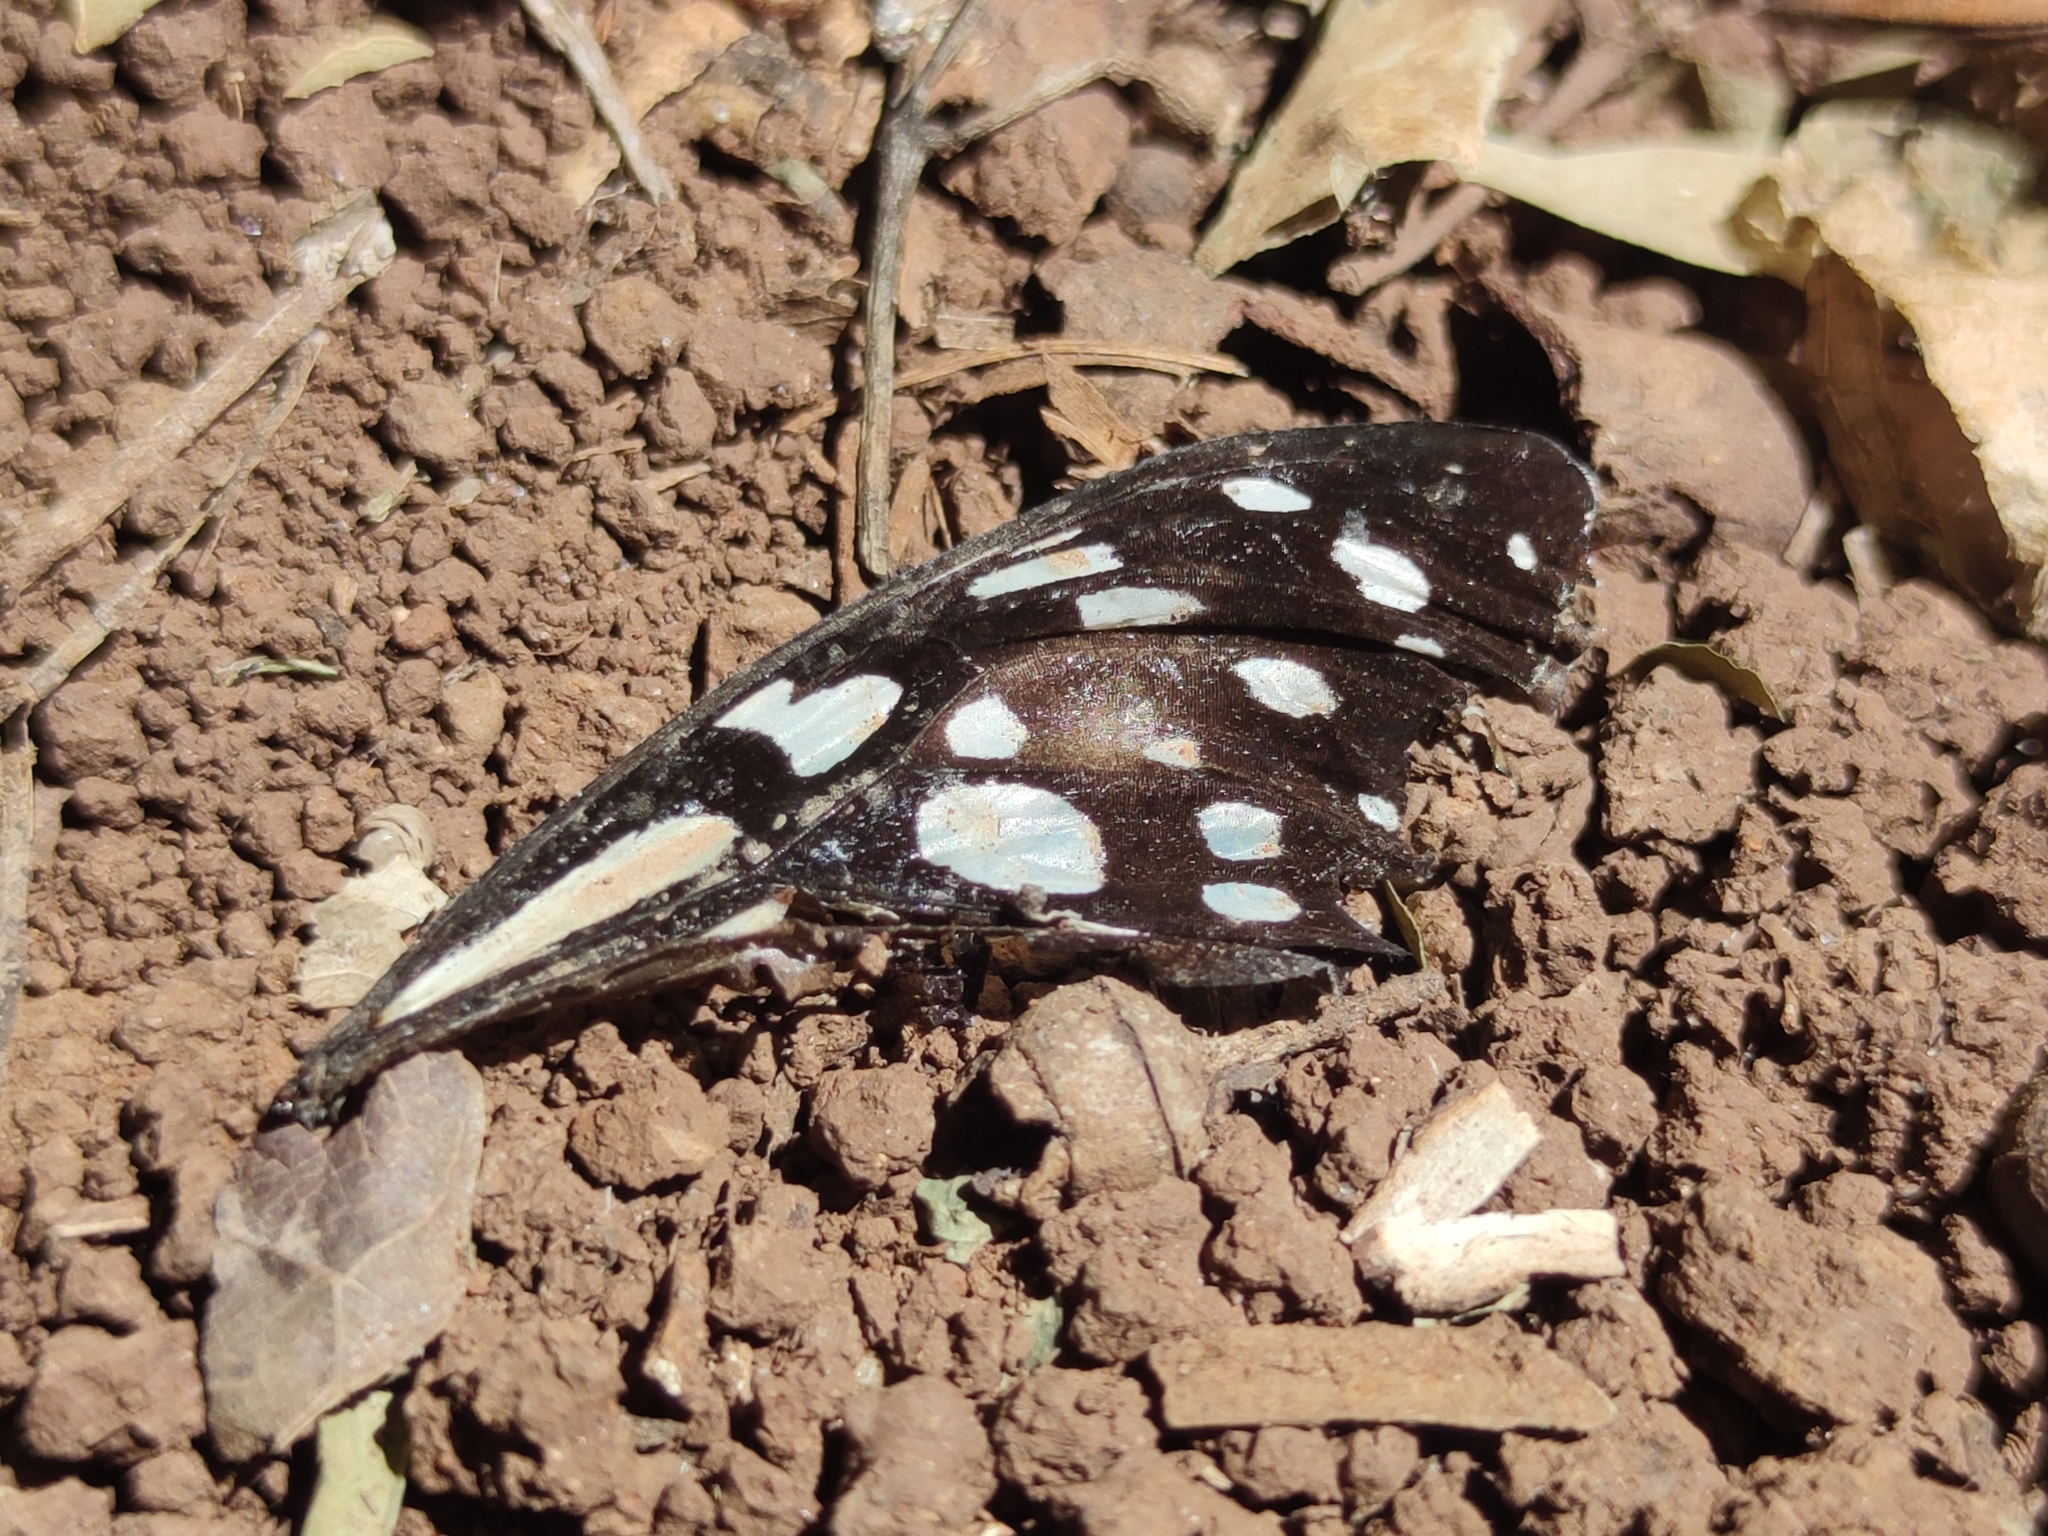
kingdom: Animalia
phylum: Arthropoda
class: Insecta
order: Lepidoptera
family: Nymphalidae
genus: Tirumala
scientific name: Tirumala petiverana
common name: Blue monarch
